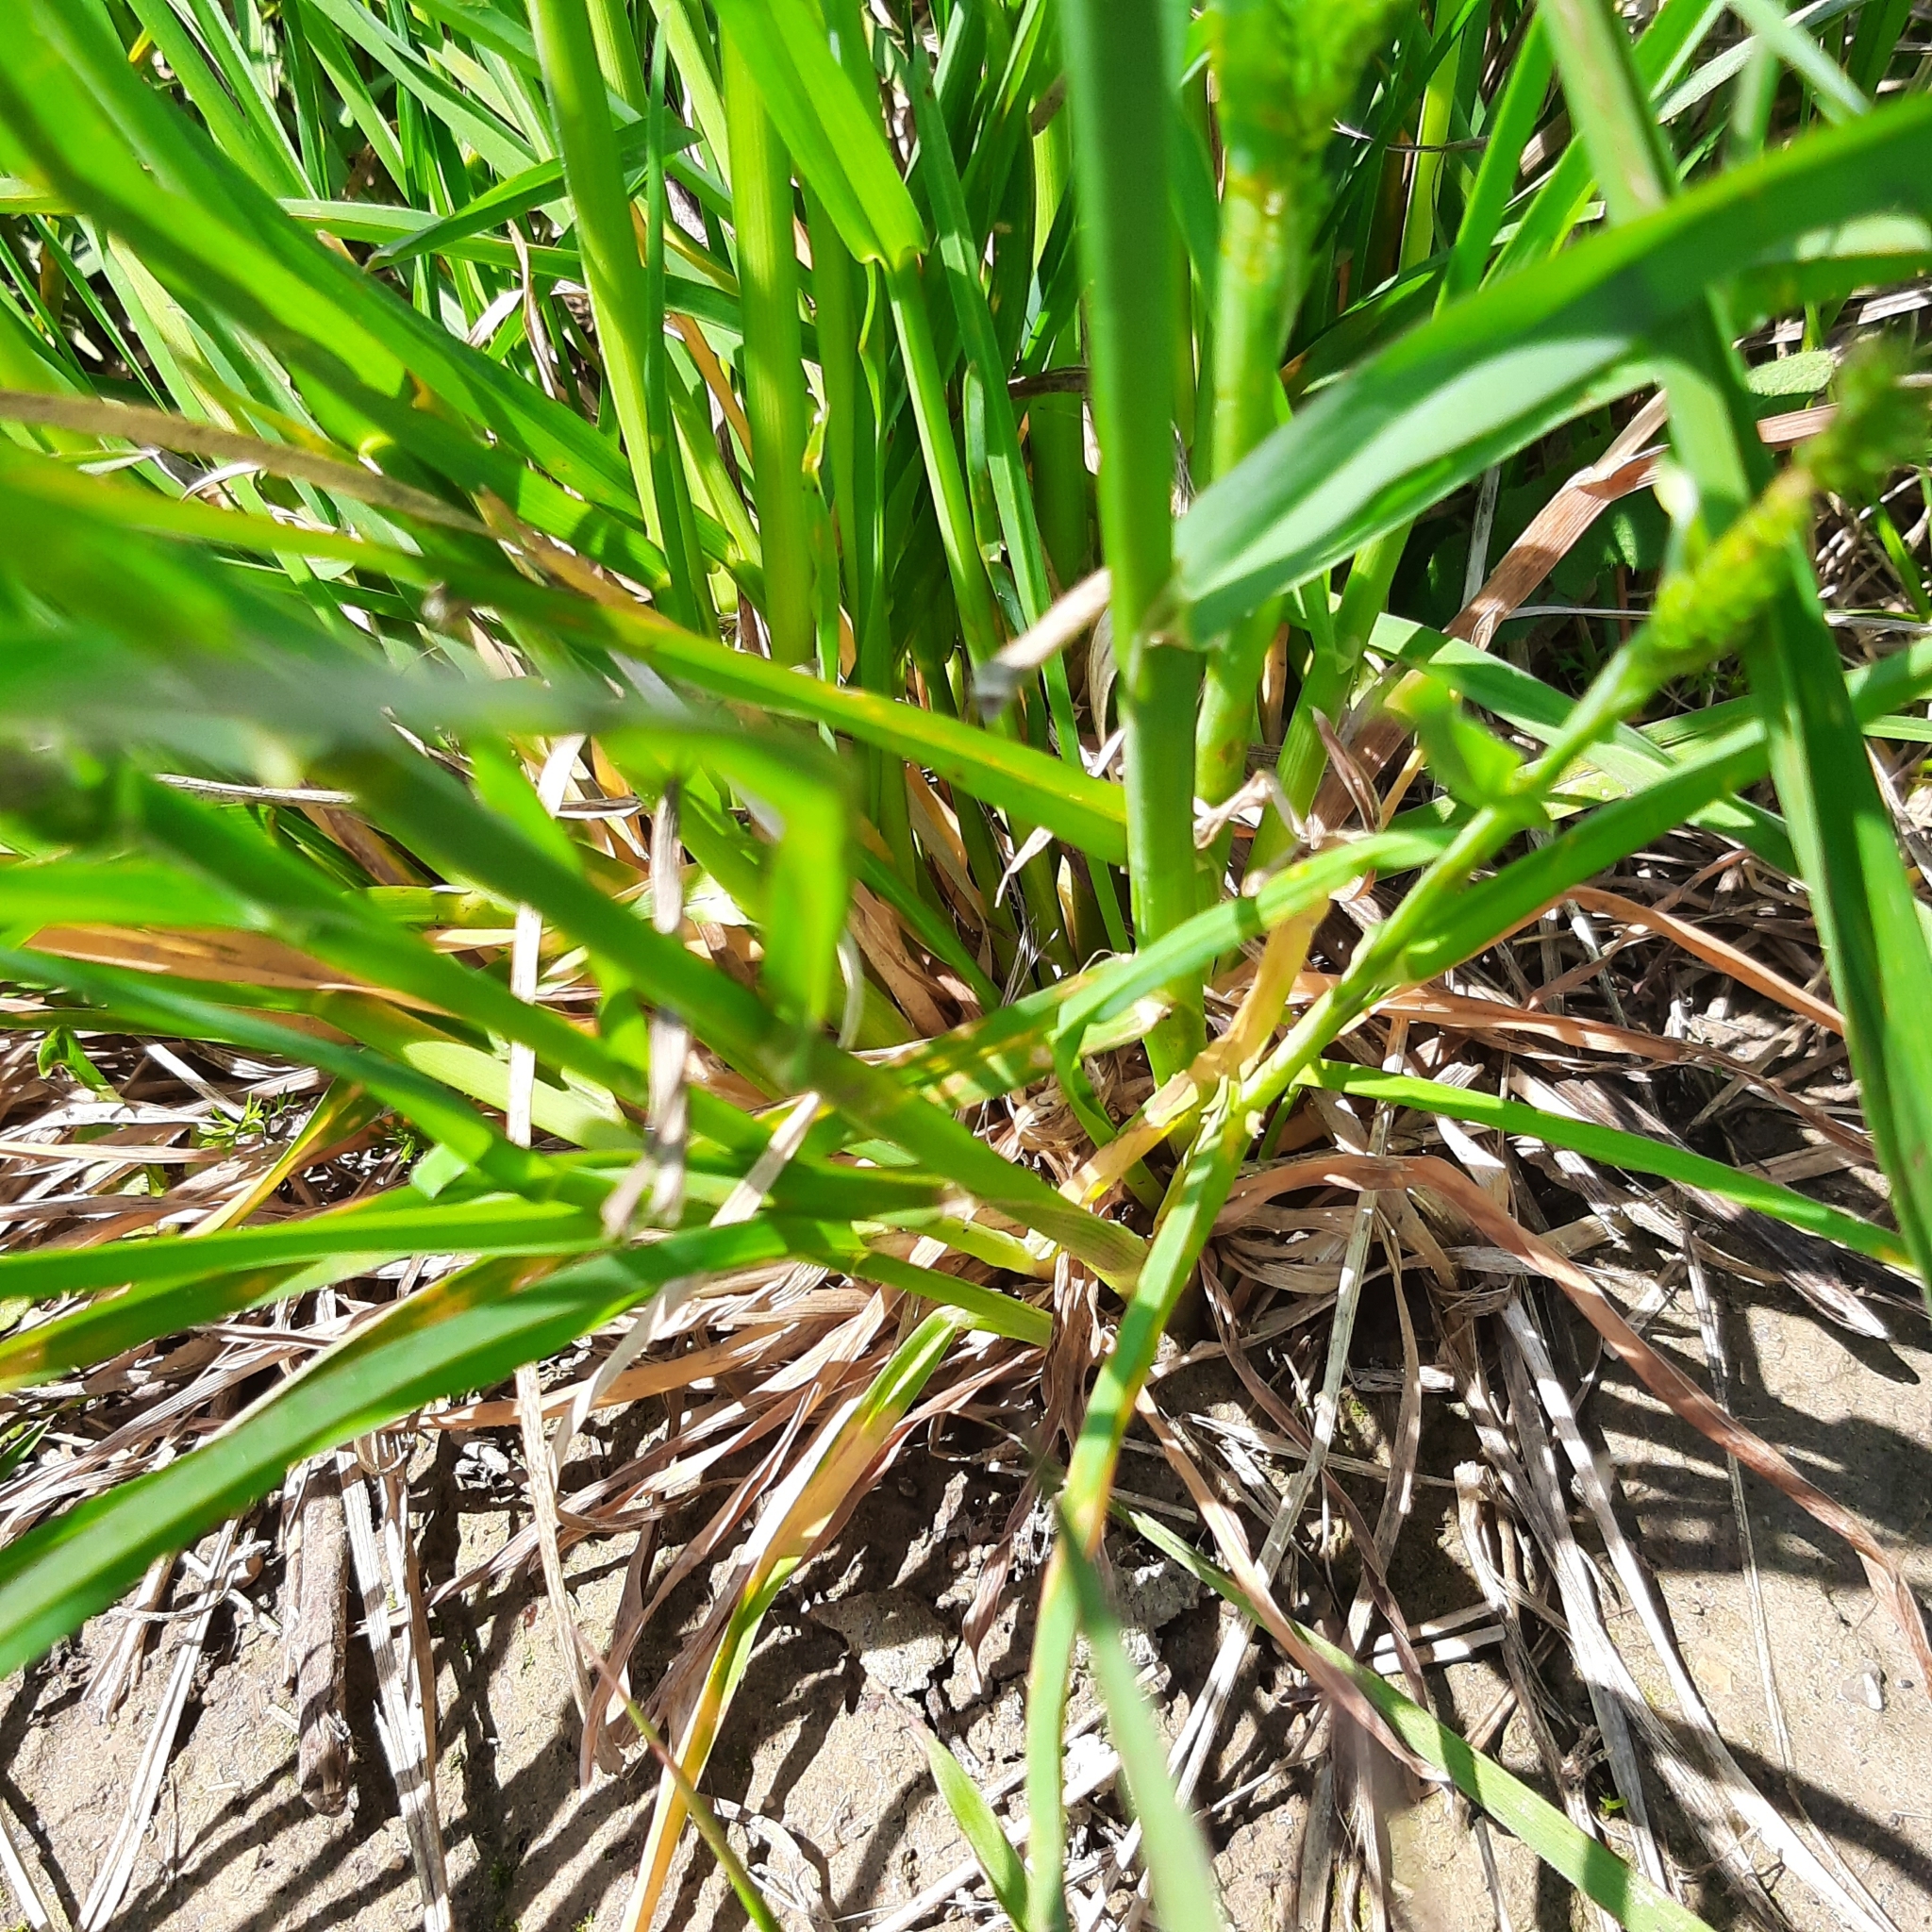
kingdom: Plantae
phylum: Tracheophyta
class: Liliopsida
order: Poales
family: Poaceae
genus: Dactylis
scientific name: Dactylis glomerata
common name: Orchardgrass
